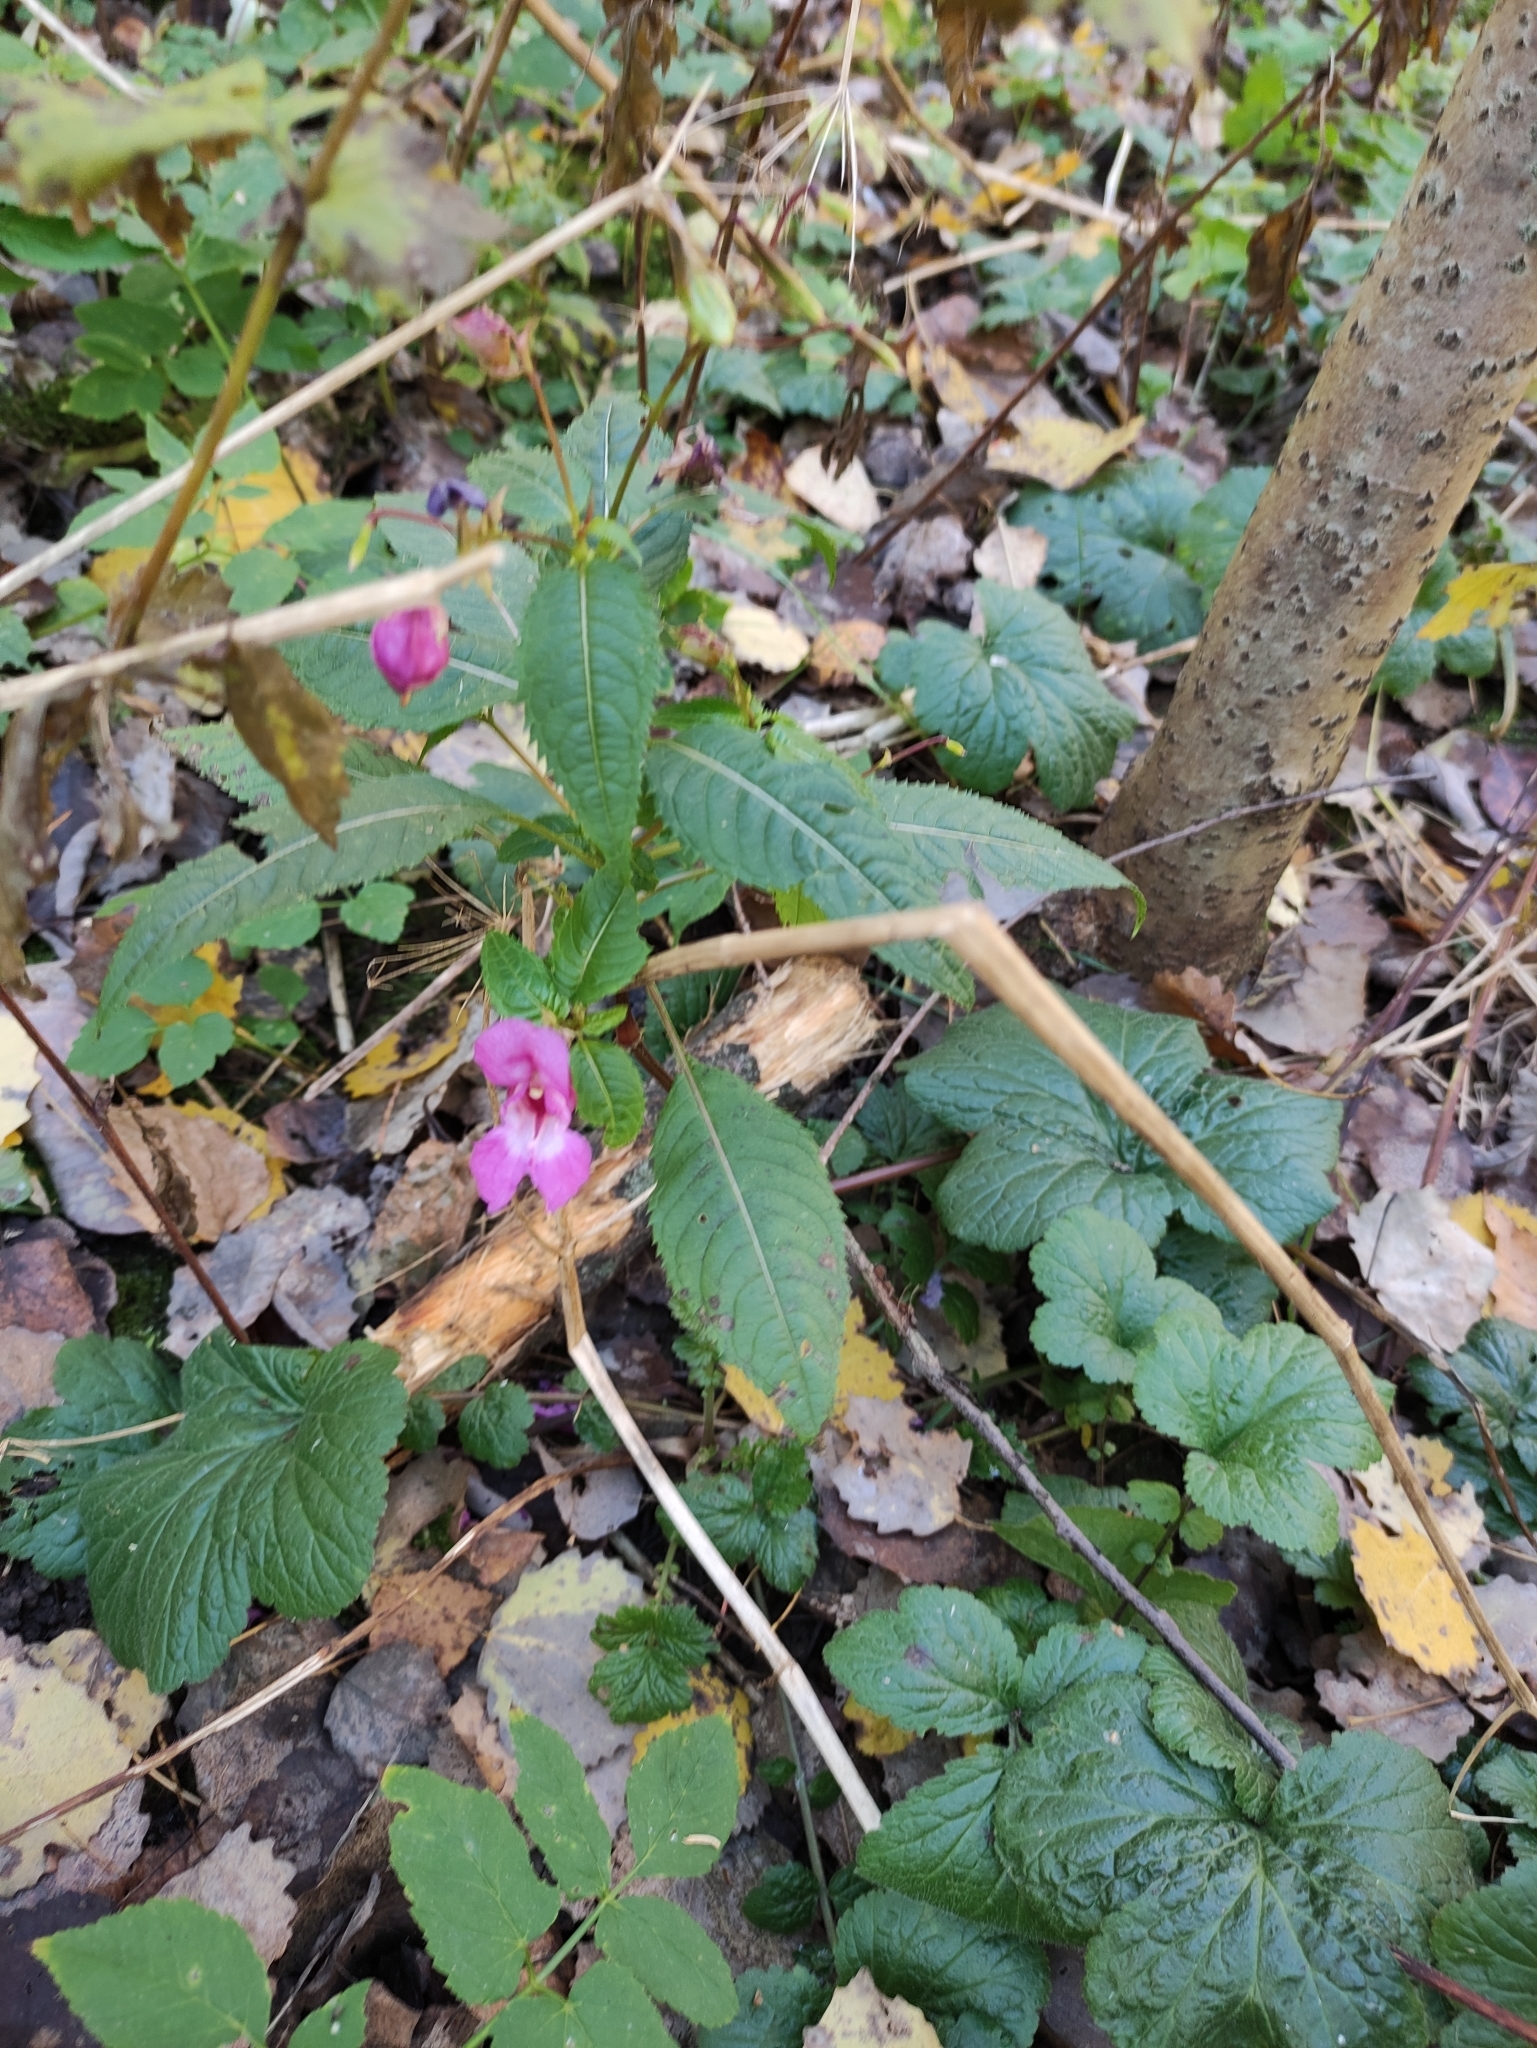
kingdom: Plantae
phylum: Tracheophyta
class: Magnoliopsida
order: Ericales
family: Balsaminaceae
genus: Impatiens
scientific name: Impatiens glandulifera
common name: Himalayan balsam
